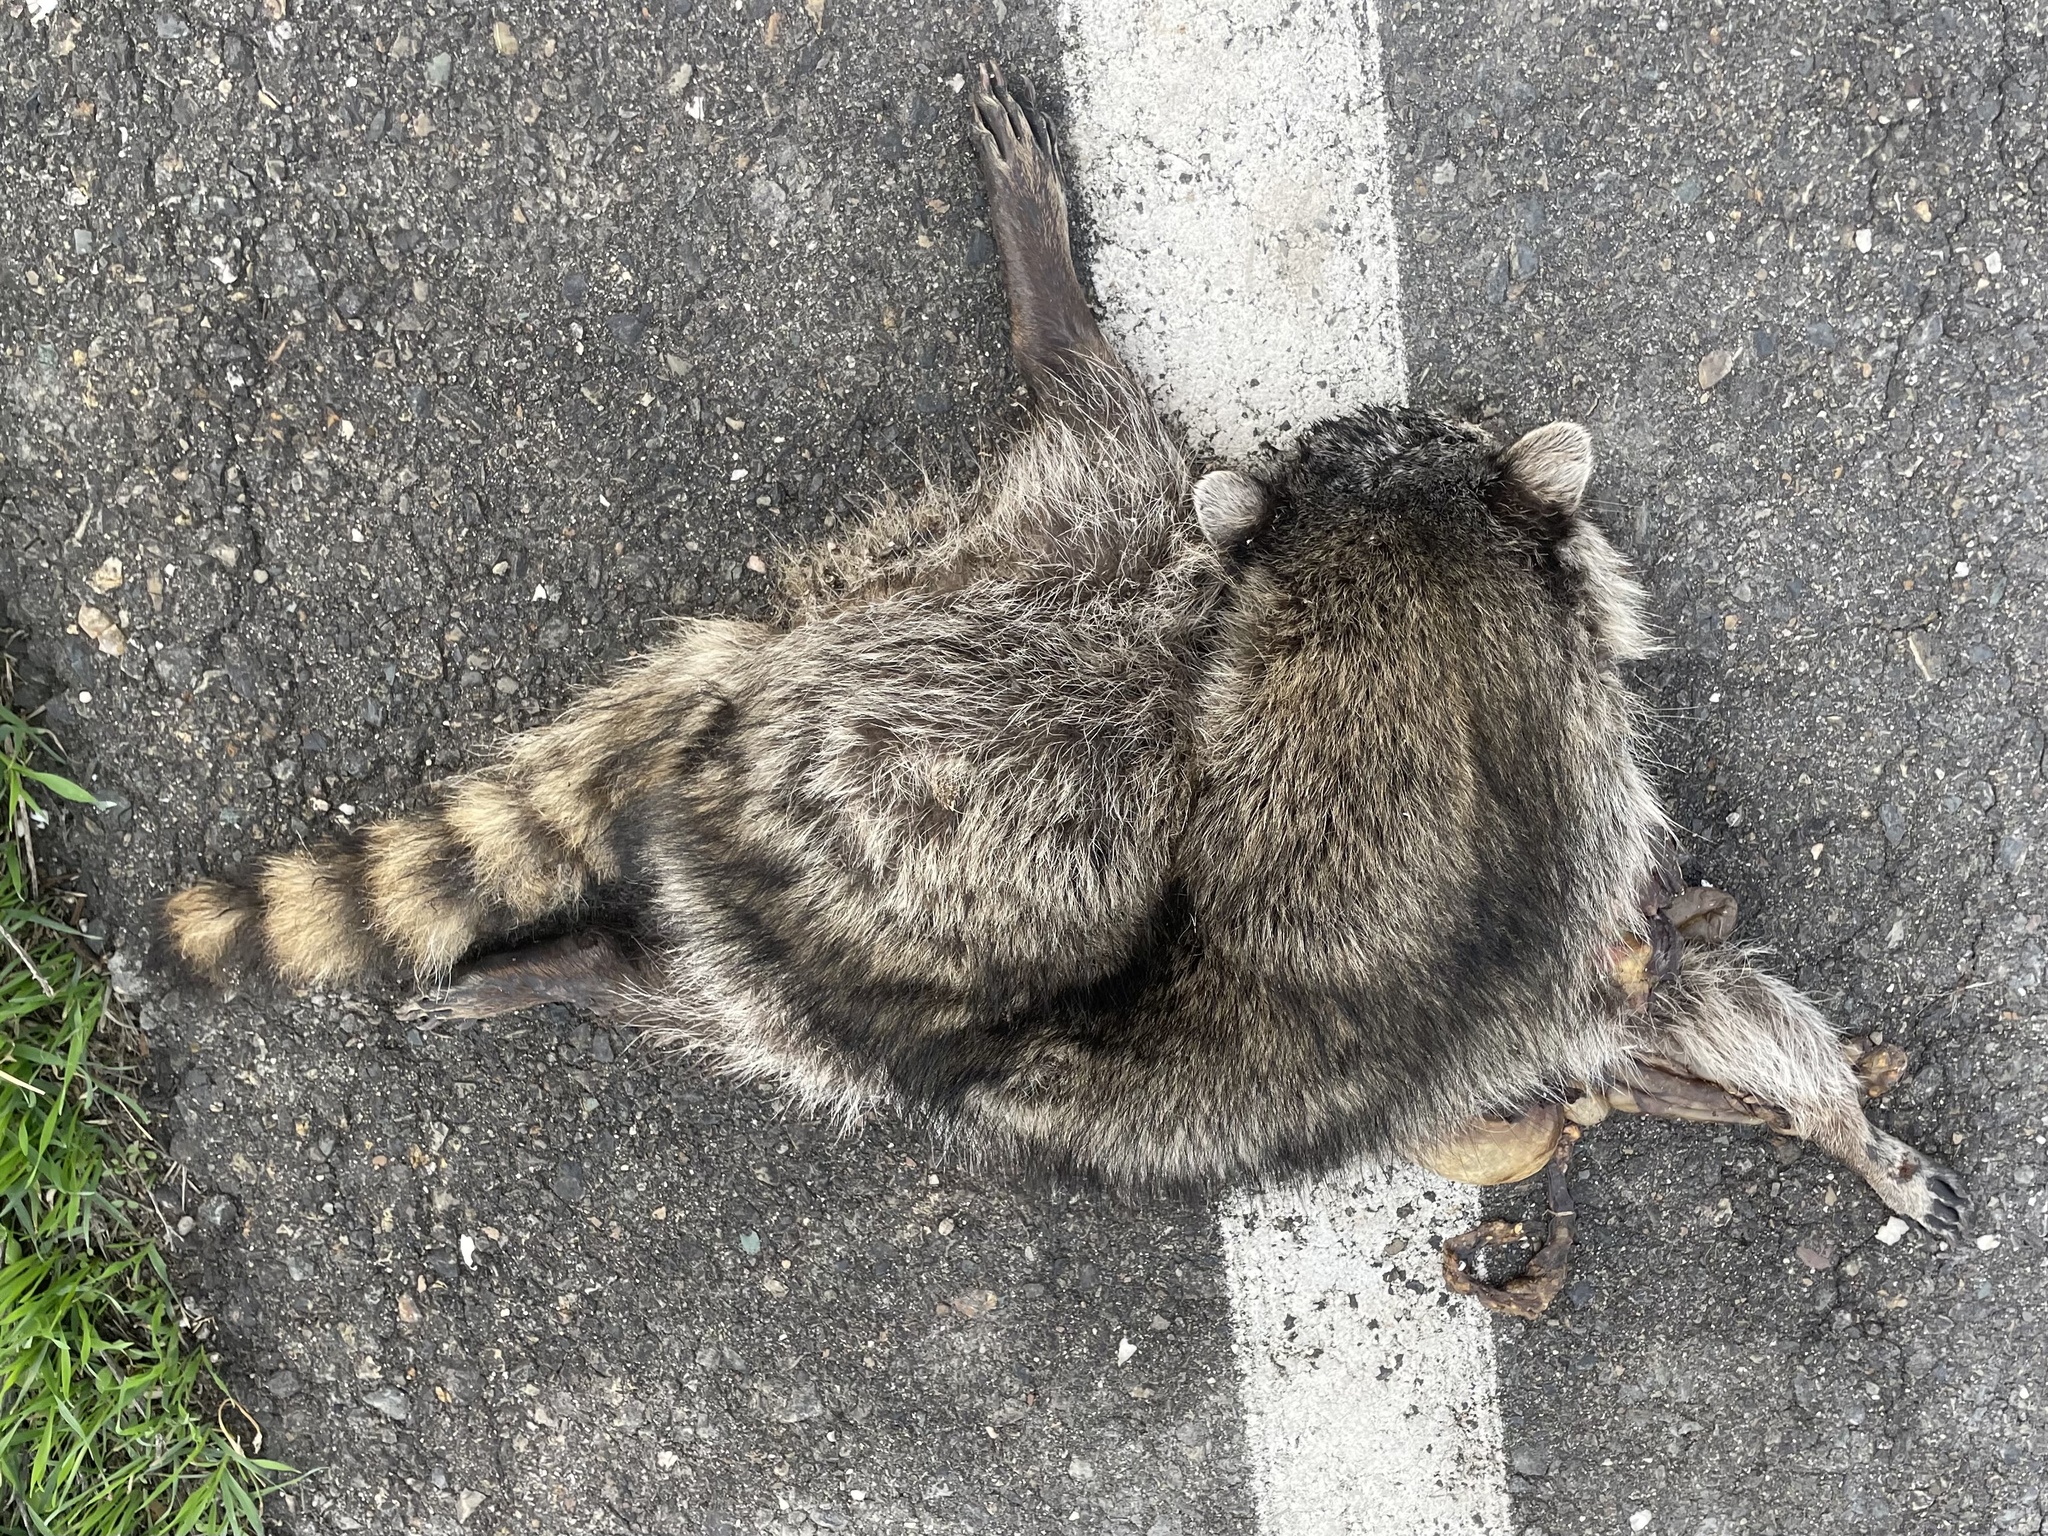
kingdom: Animalia
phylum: Chordata
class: Mammalia
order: Carnivora
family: Procyonidae
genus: Procyon
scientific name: Procyon lotor
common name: Raccoon
